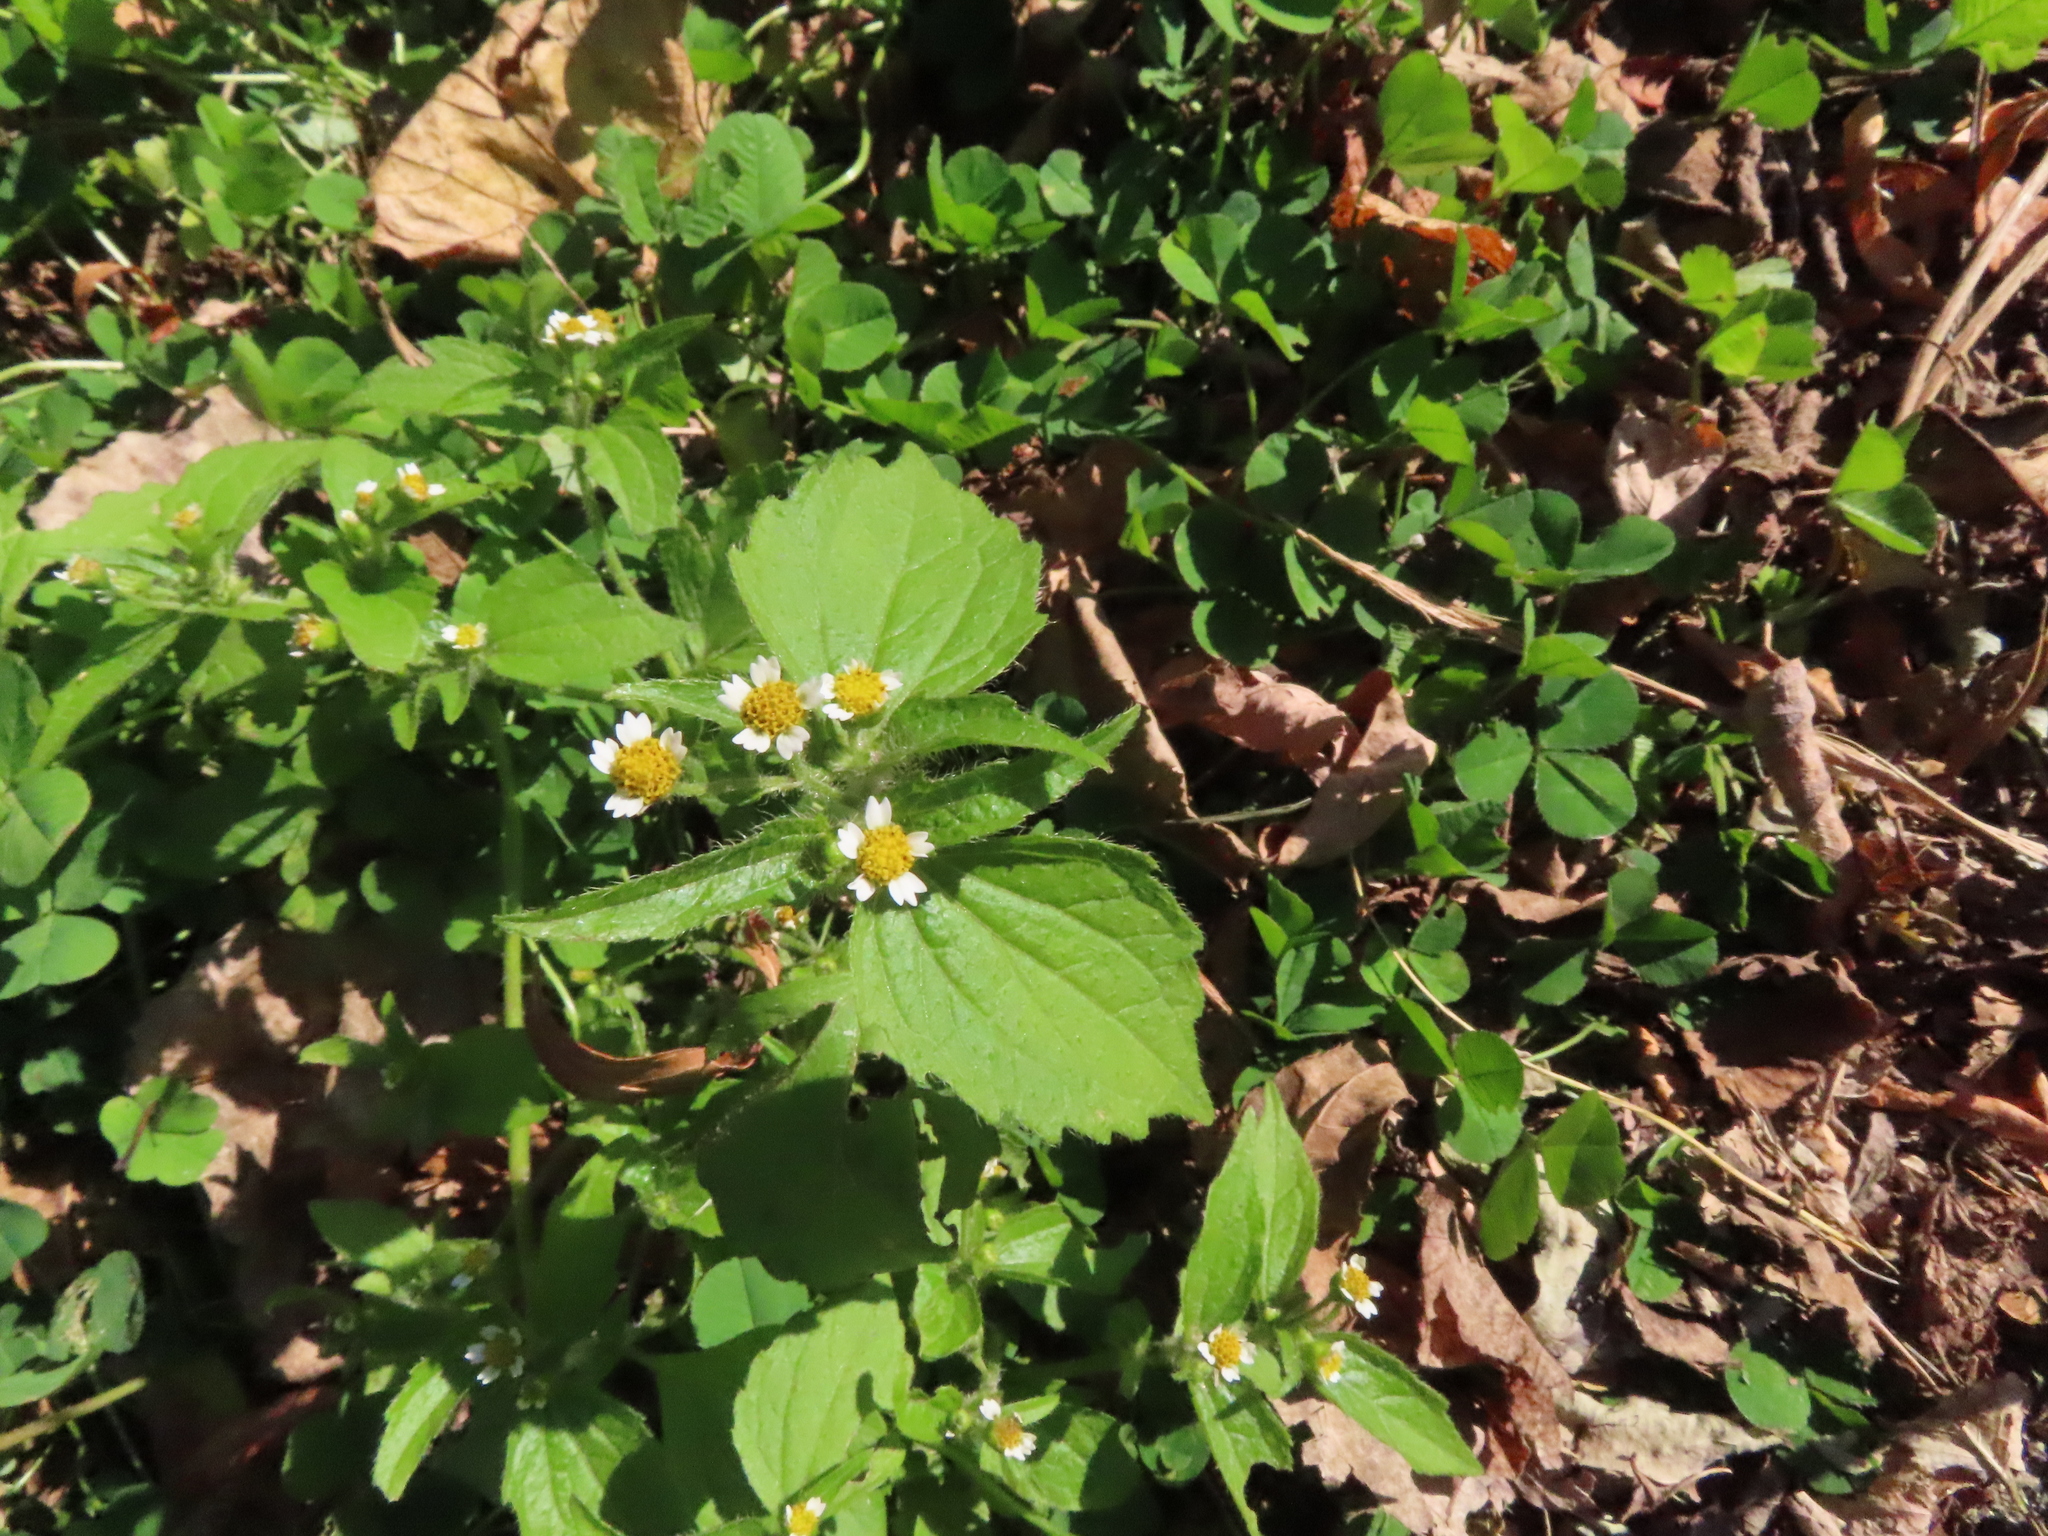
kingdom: Plantae
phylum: Tracheophyta
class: Magnoliopsida
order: Asterales
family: Asteraceae
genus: Galinsoga
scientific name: Galinsoga quadriradiata
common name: Shaggy soldier
